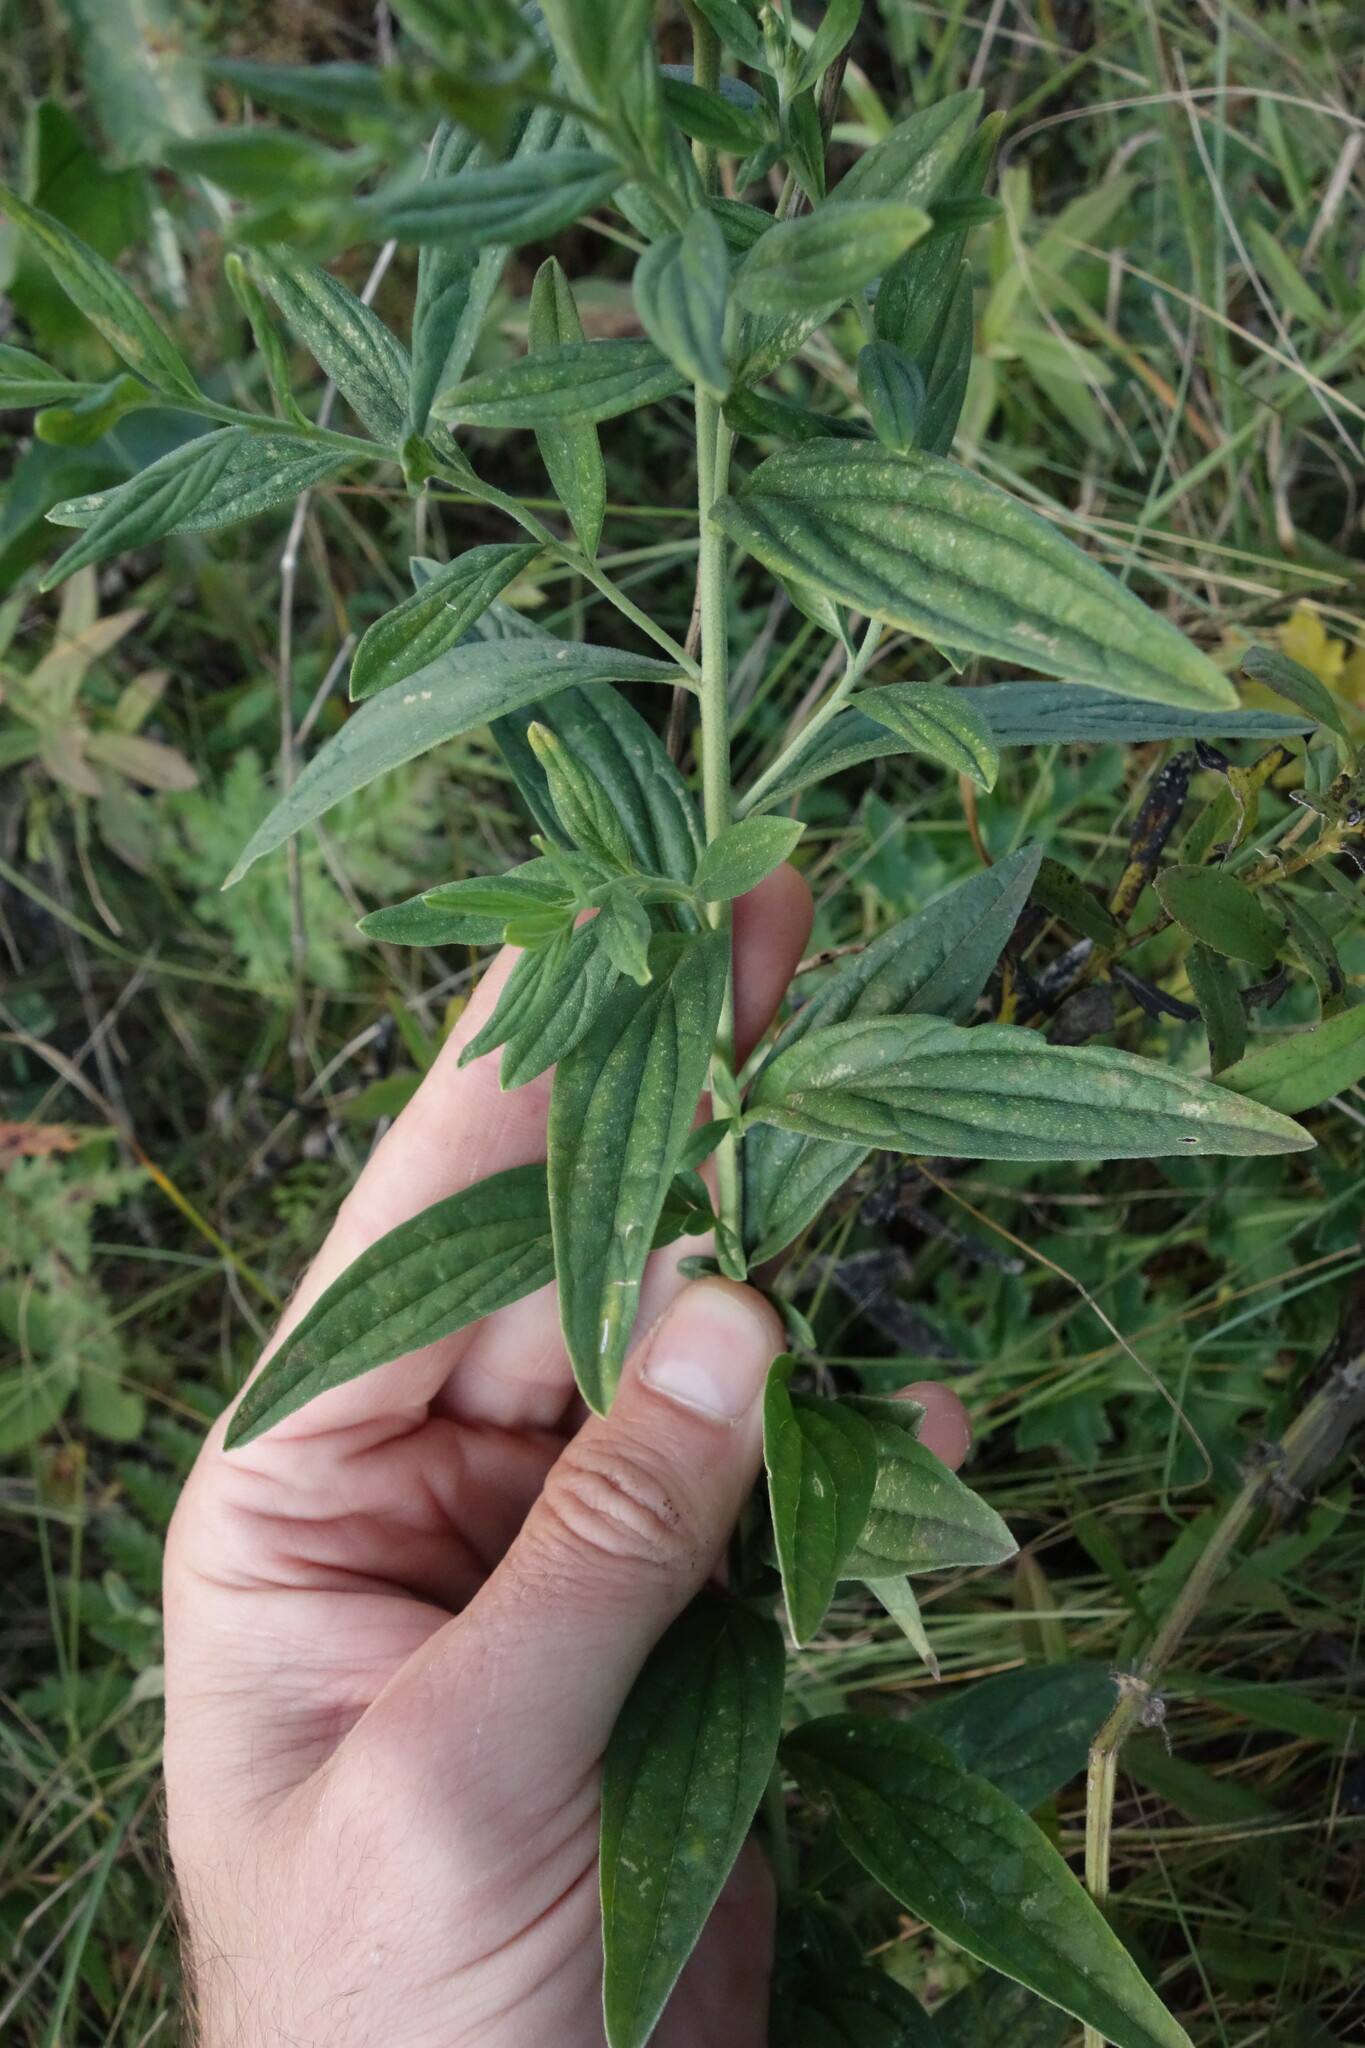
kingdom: Plantae
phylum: Tracheophyta
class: Magnoliopsida
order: Boraginales
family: Boraginaceae
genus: Lithospermum
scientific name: Lithospermum officinale
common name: Common gromwell
